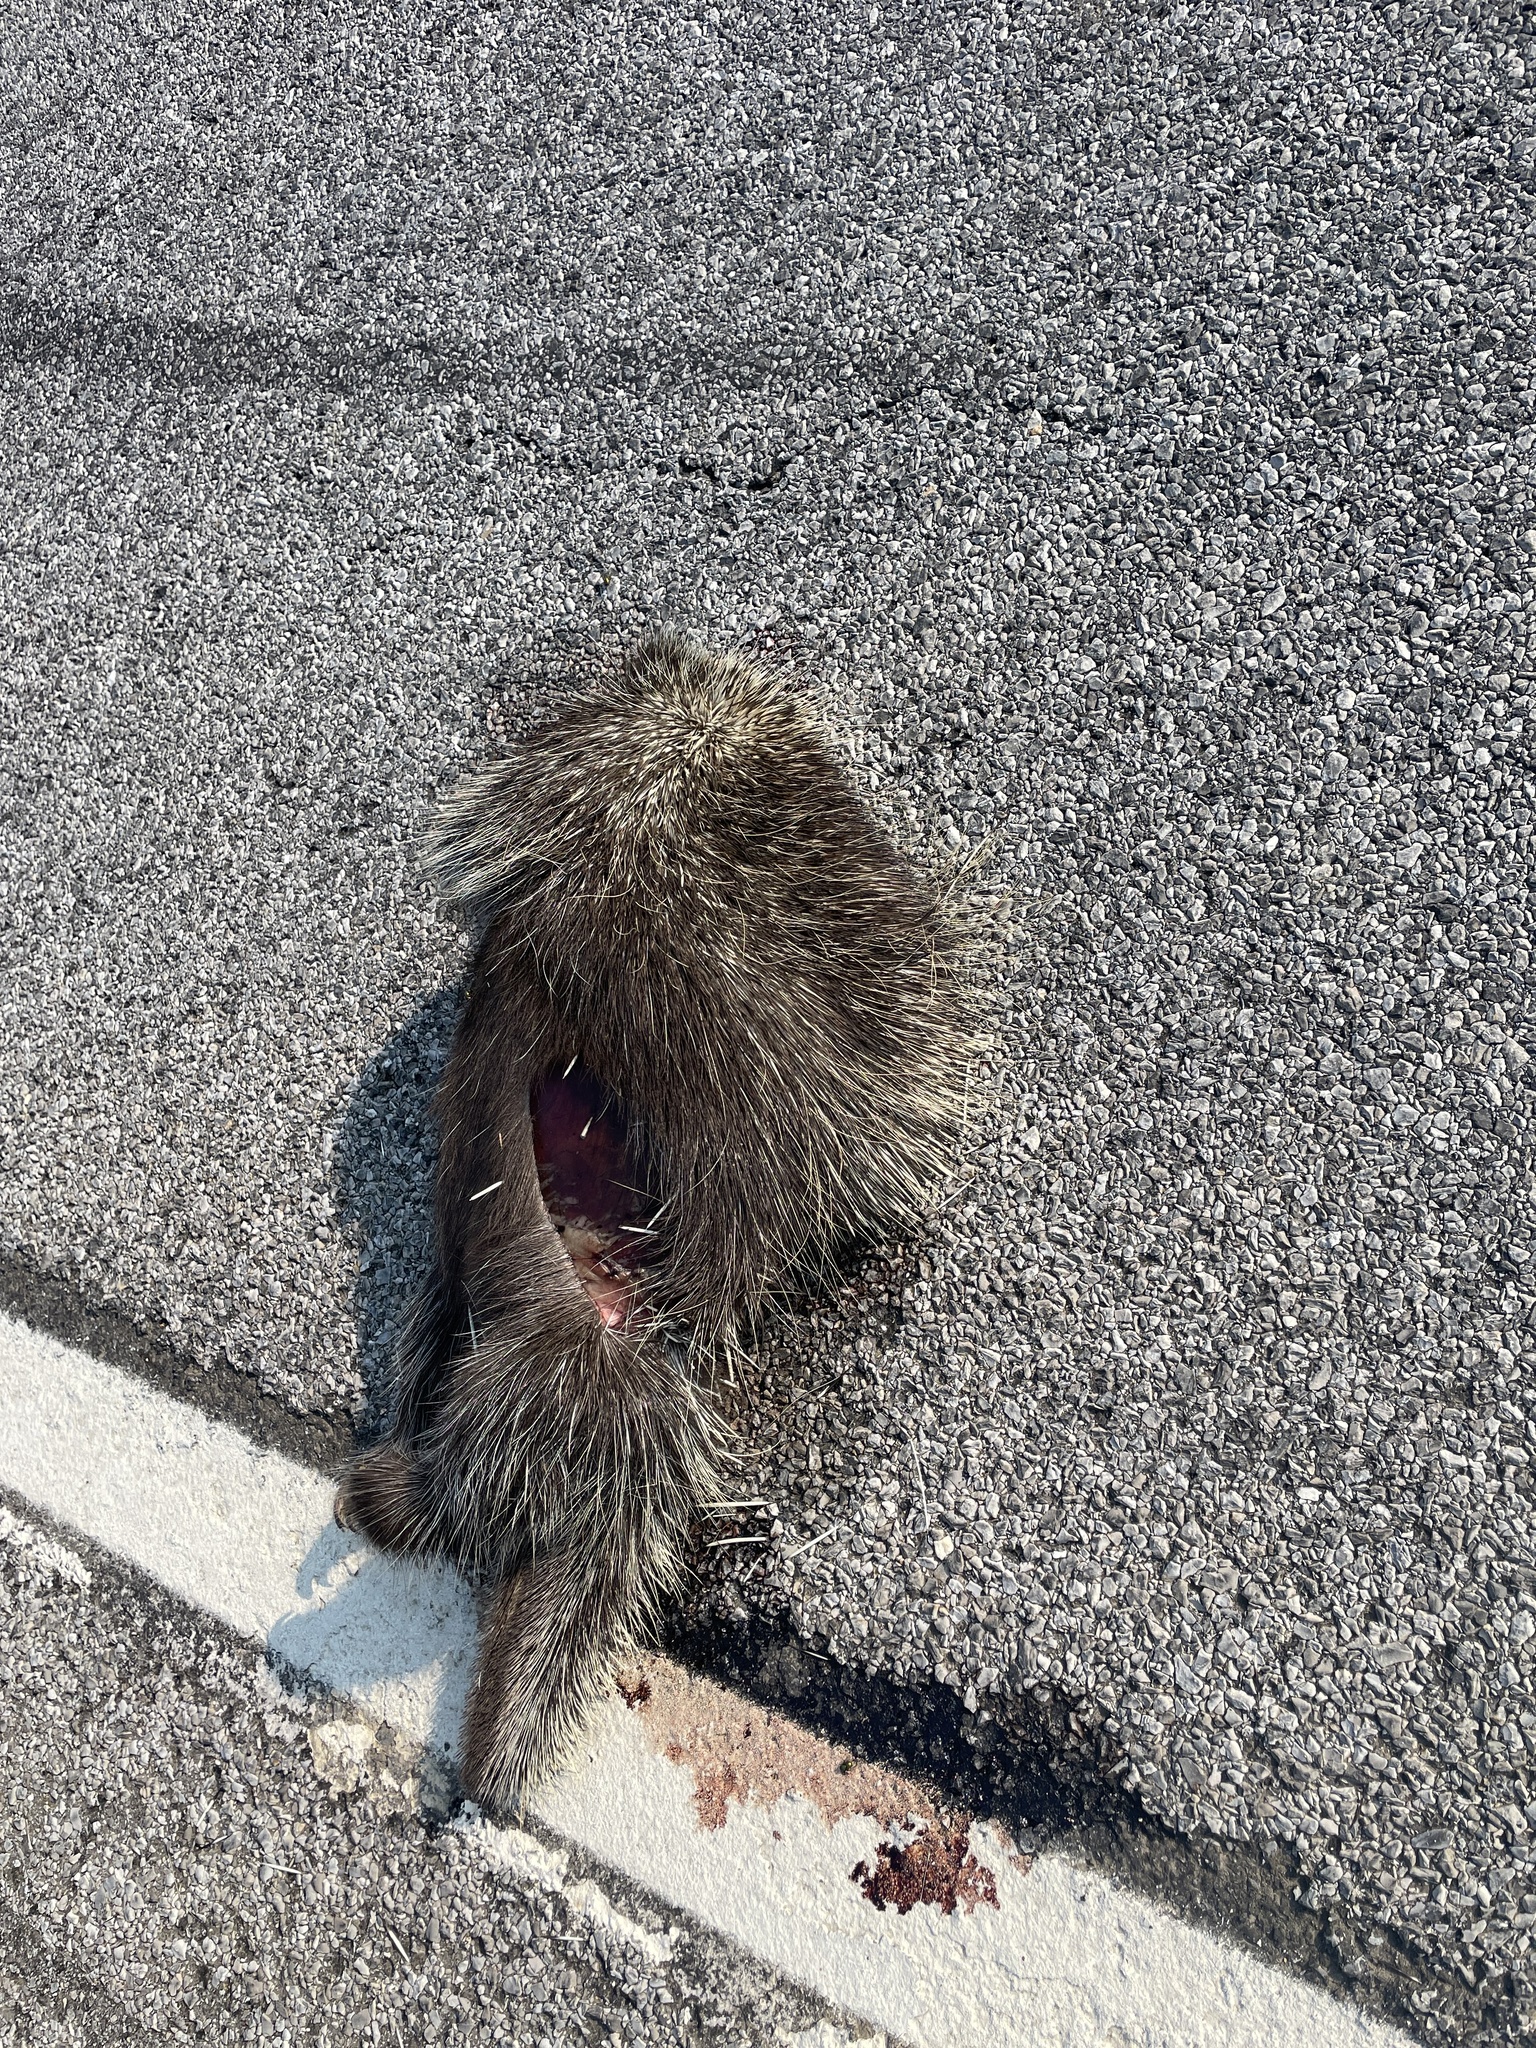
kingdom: Animalia
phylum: Chordata
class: Mammalia
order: Rodentia
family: Erethizontidae
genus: Erethizon
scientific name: Erethizon dorsatus
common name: North american porcupine
